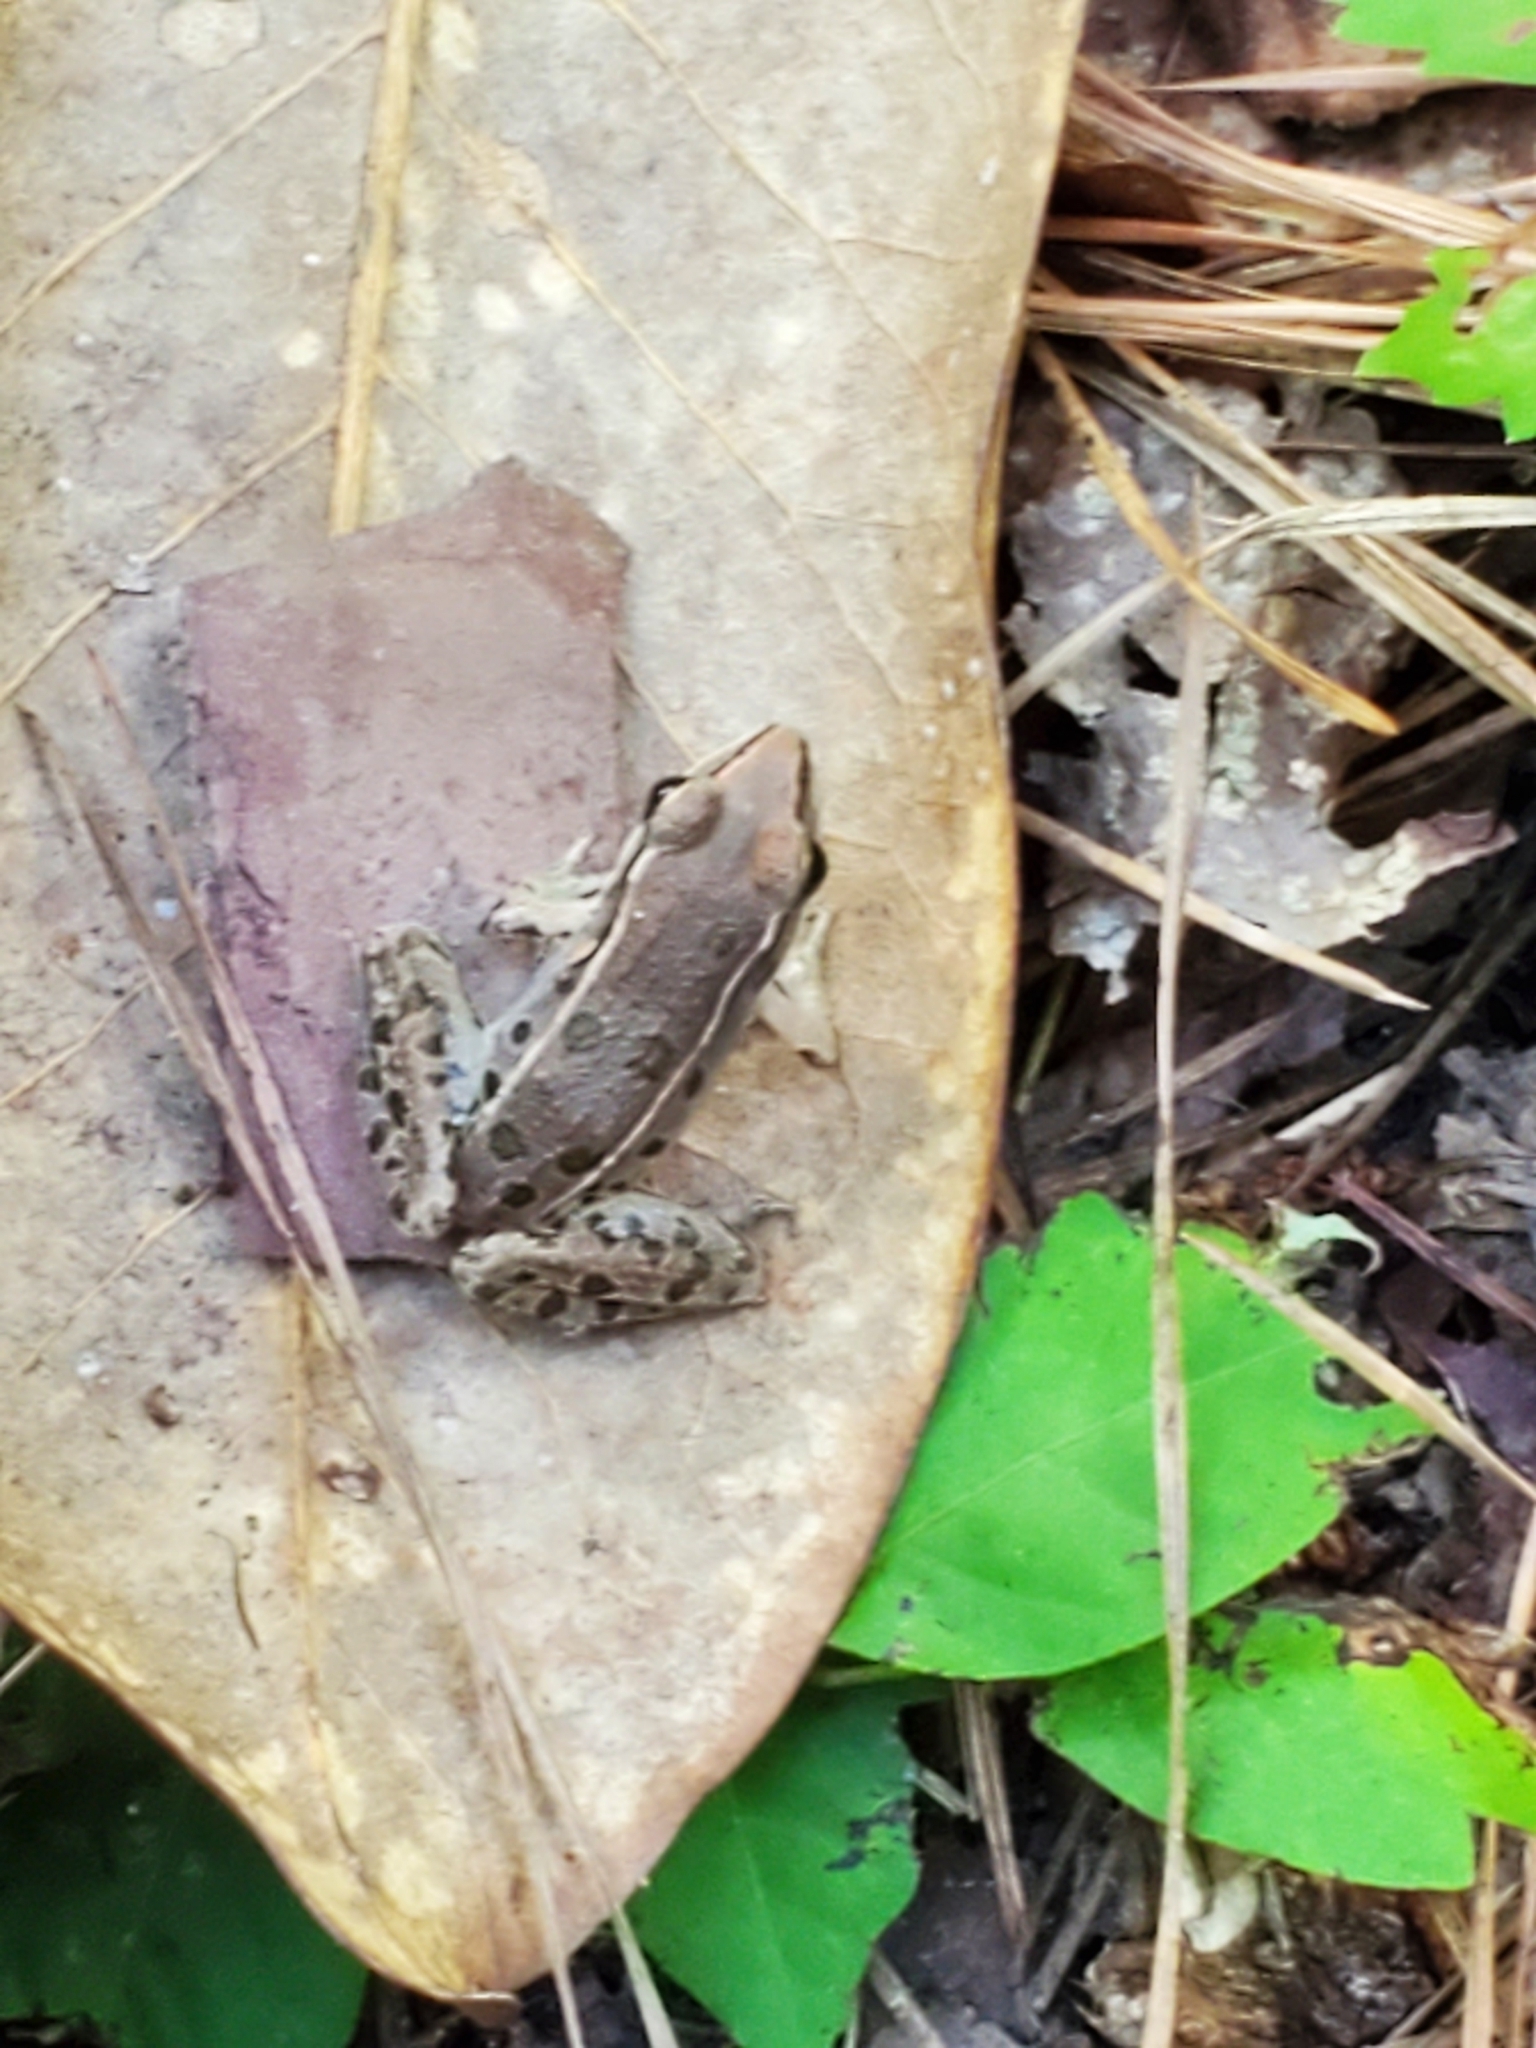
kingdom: Animalia
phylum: Chordata
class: Amphibia
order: Anura
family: Ranidae
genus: Lithobates
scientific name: Lithobates sphenocephalus
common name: Southern leopard frog
